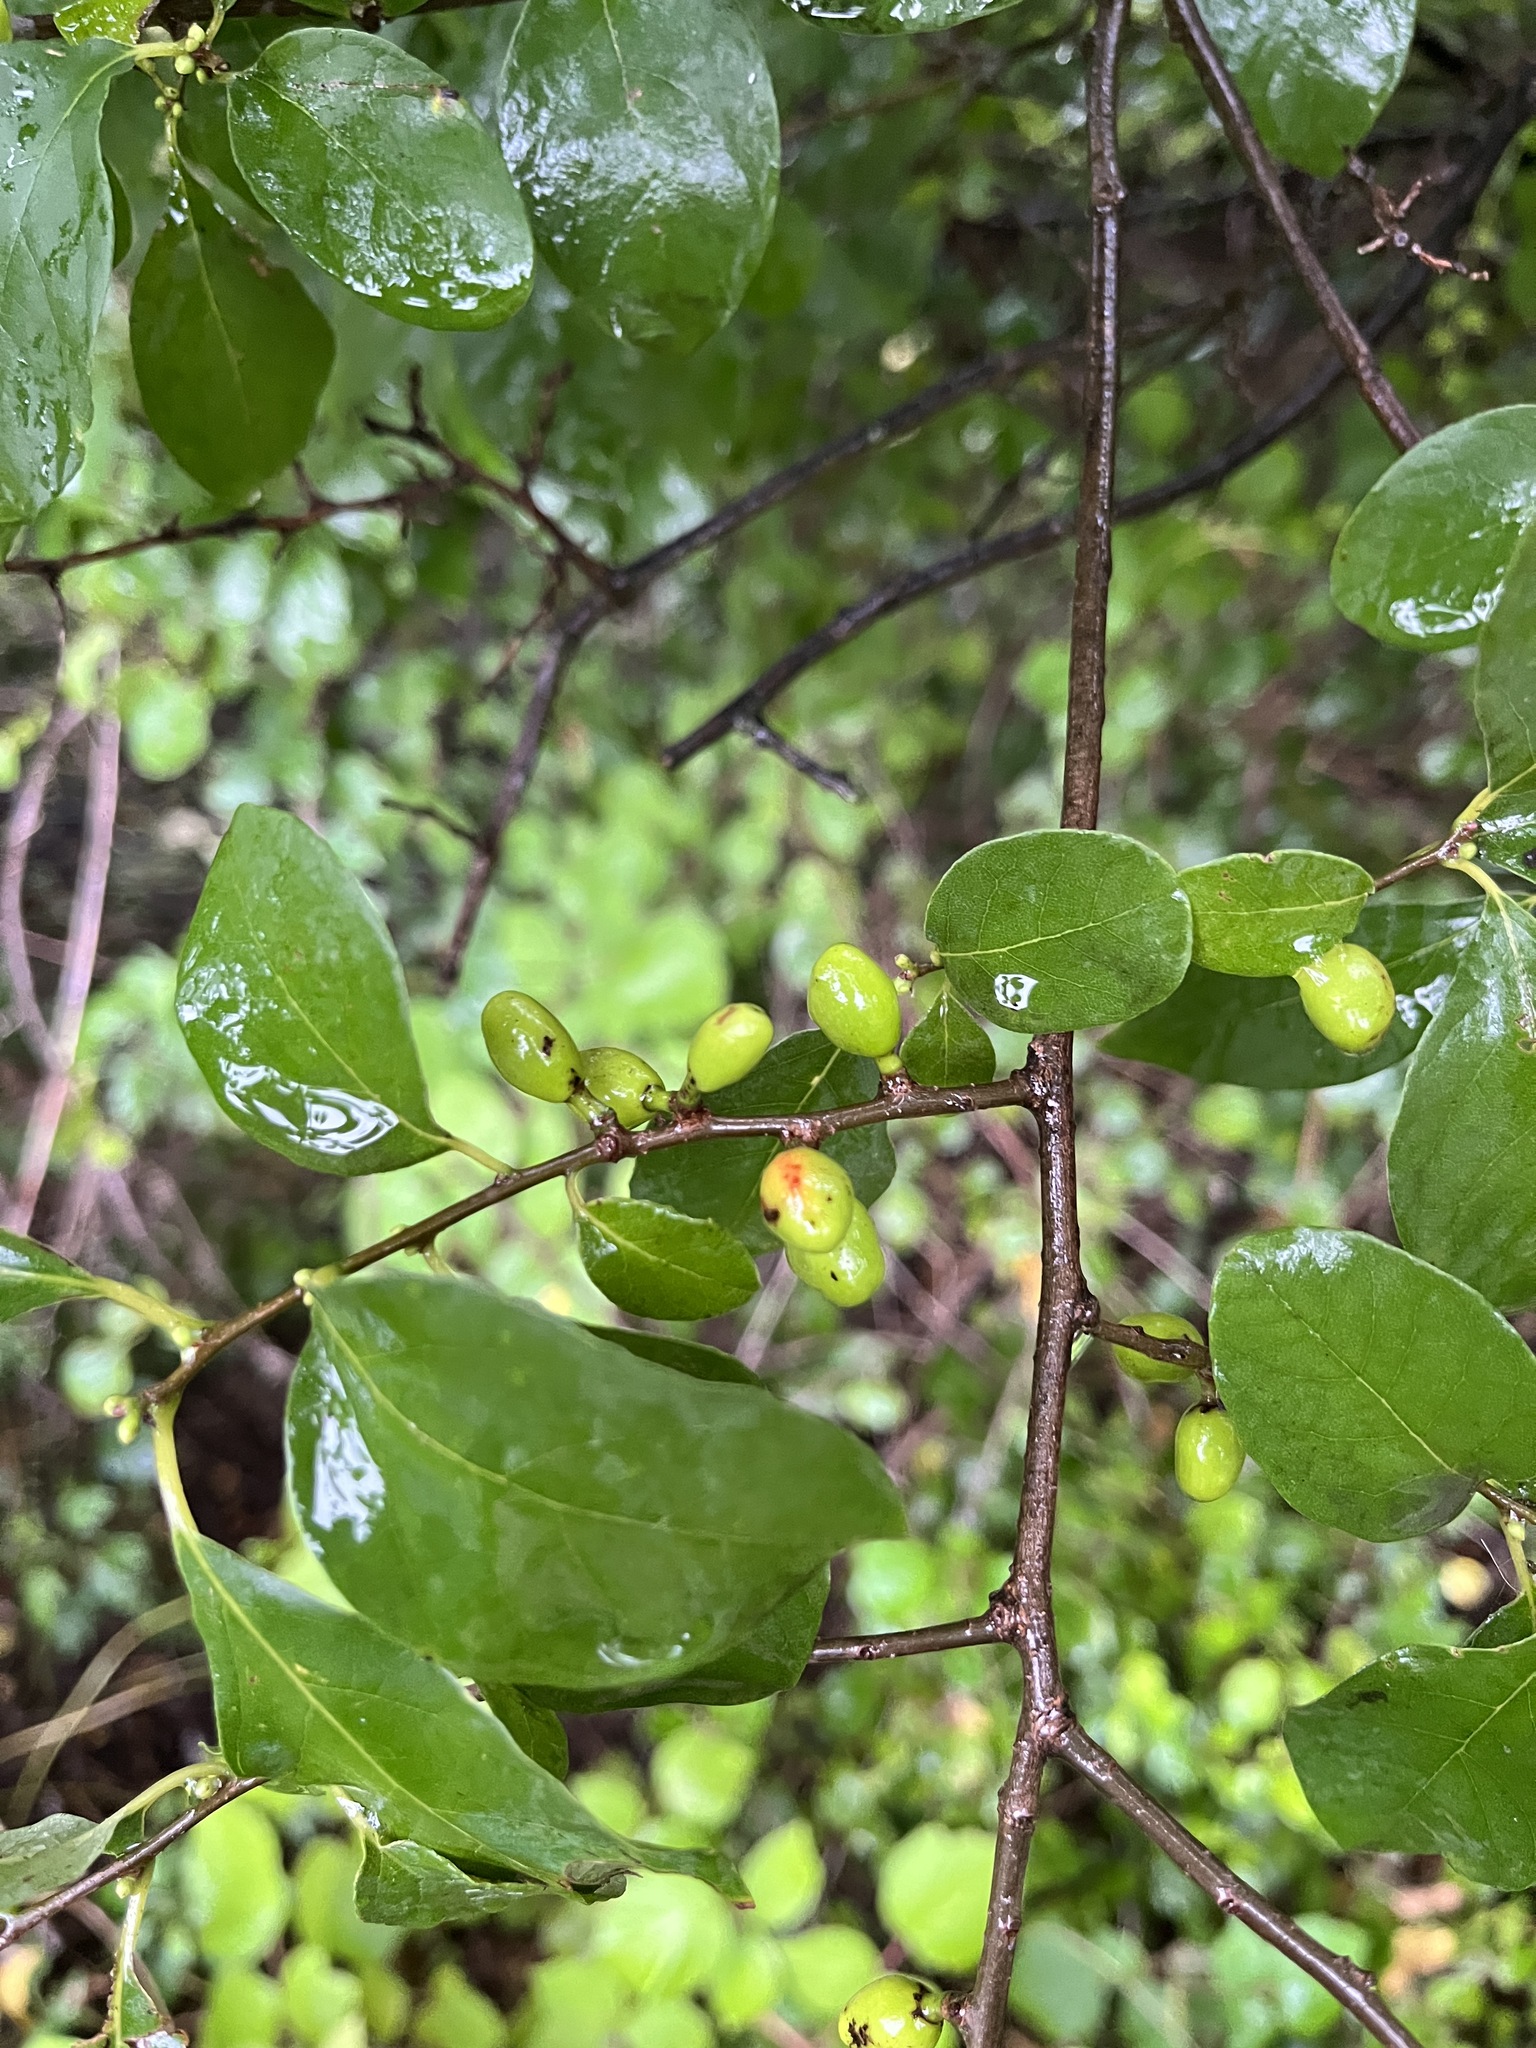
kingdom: Plantae
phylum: Tracheophyta
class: Magnoliopsida
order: Laurales
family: Lauraceae
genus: Lindera
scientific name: Lindera benzoin
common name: Spicebush
